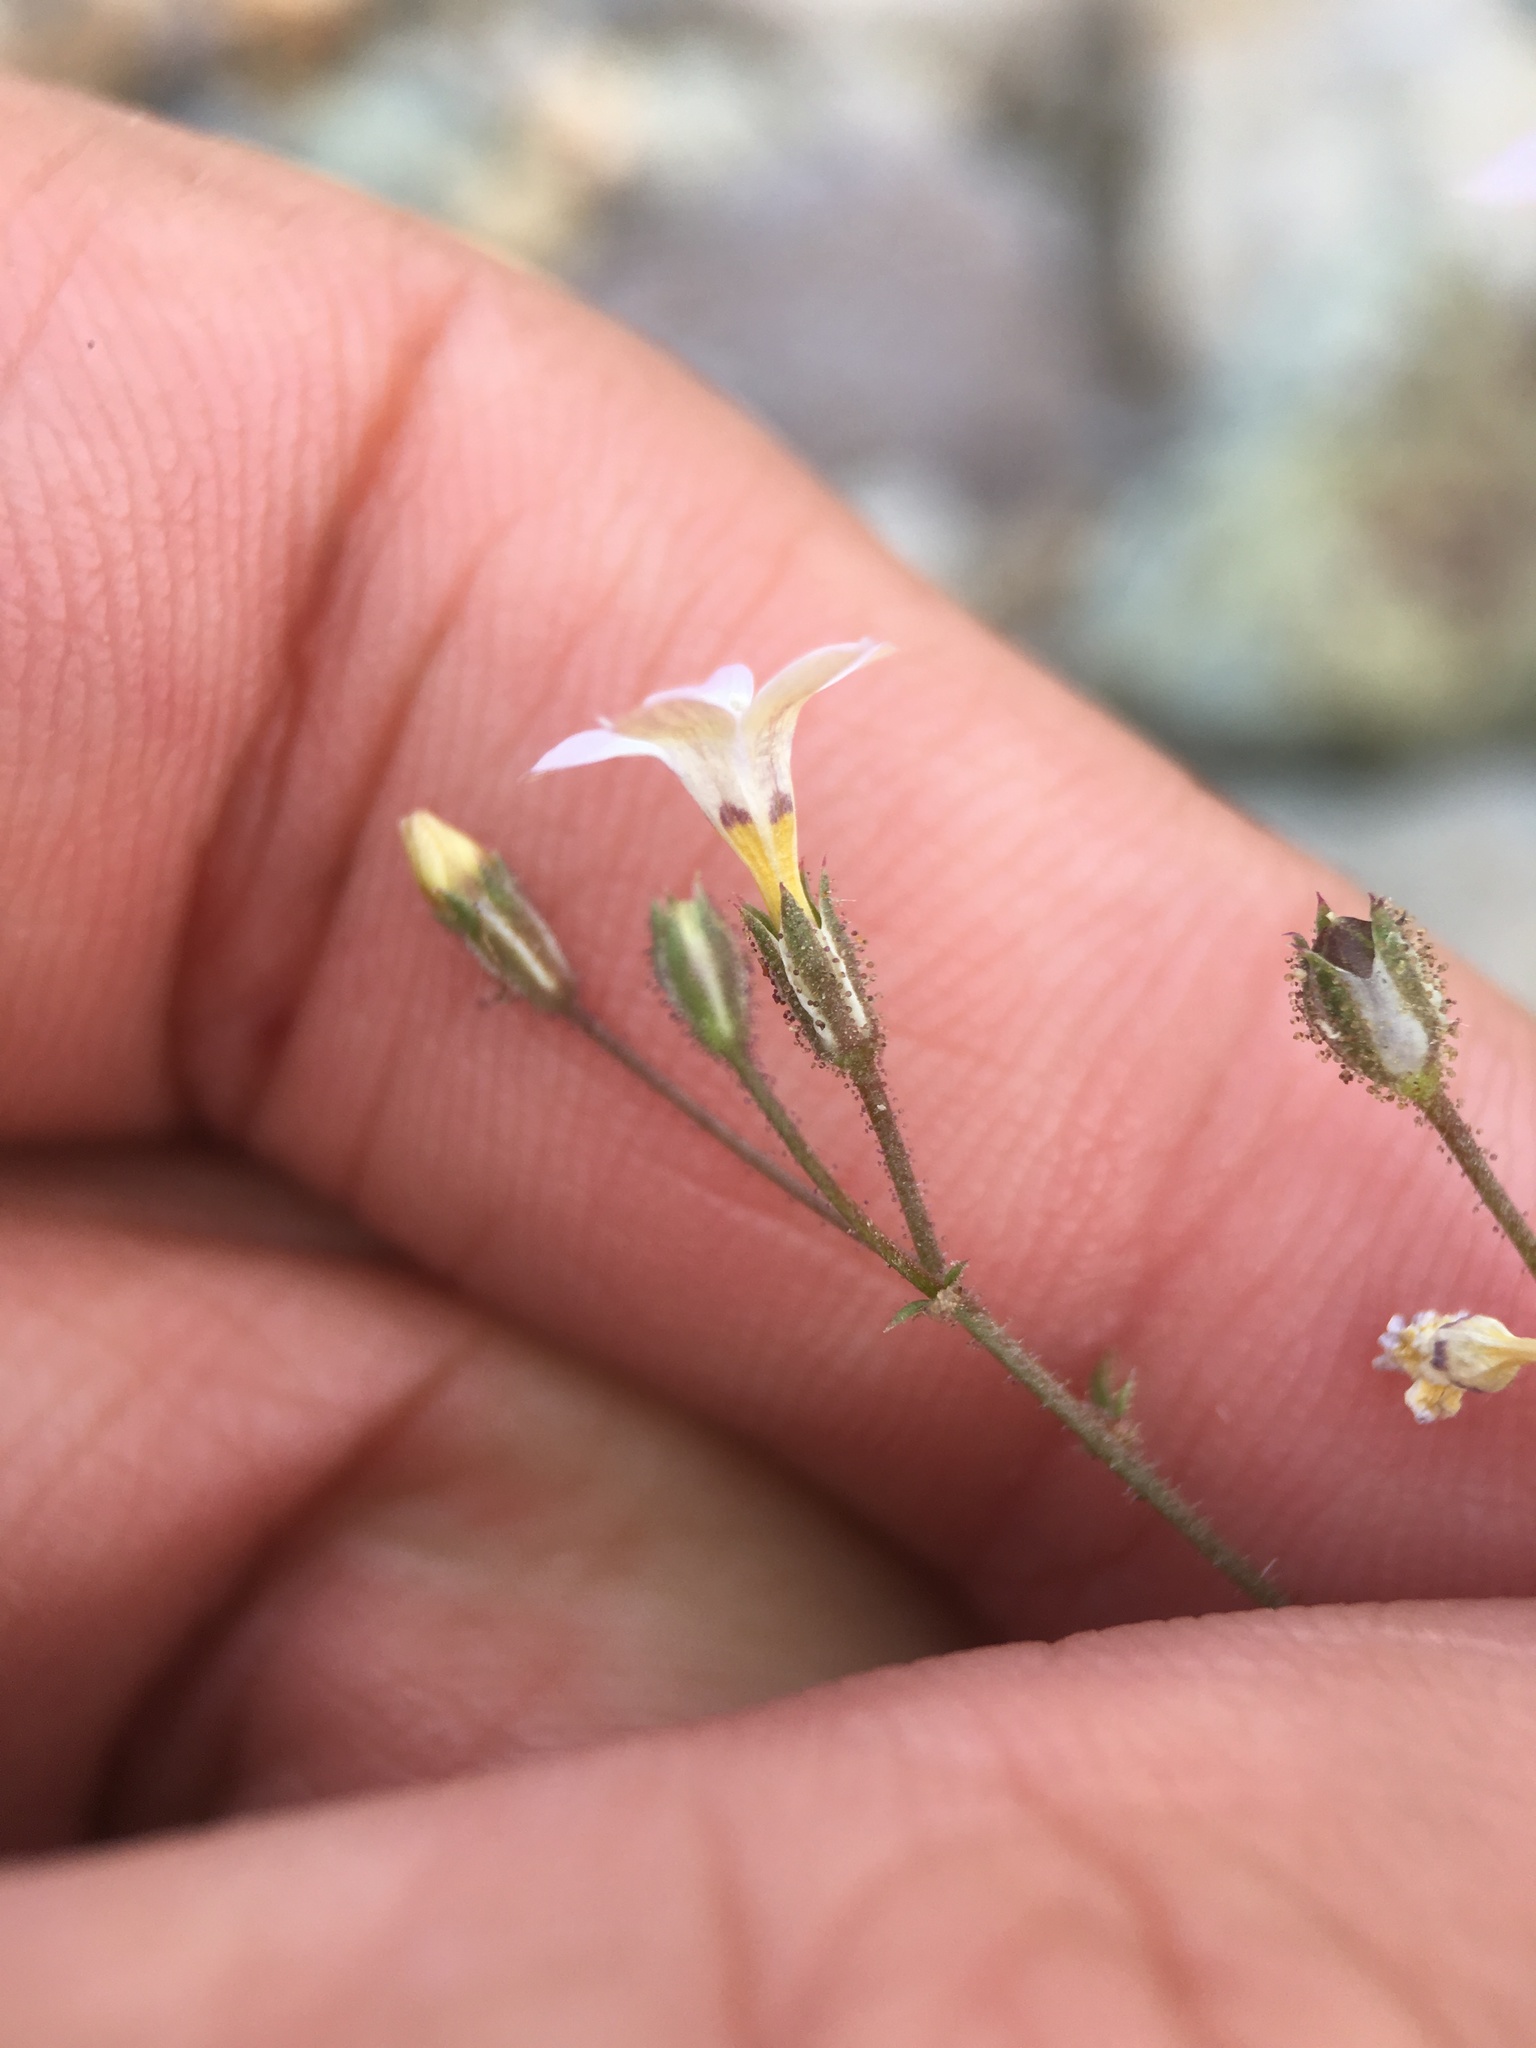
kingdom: Plantae
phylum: Tracheophyta
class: Magnoliopsida
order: Ericales
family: Polemoniaceae
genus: Gilia
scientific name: Gilia stellata
